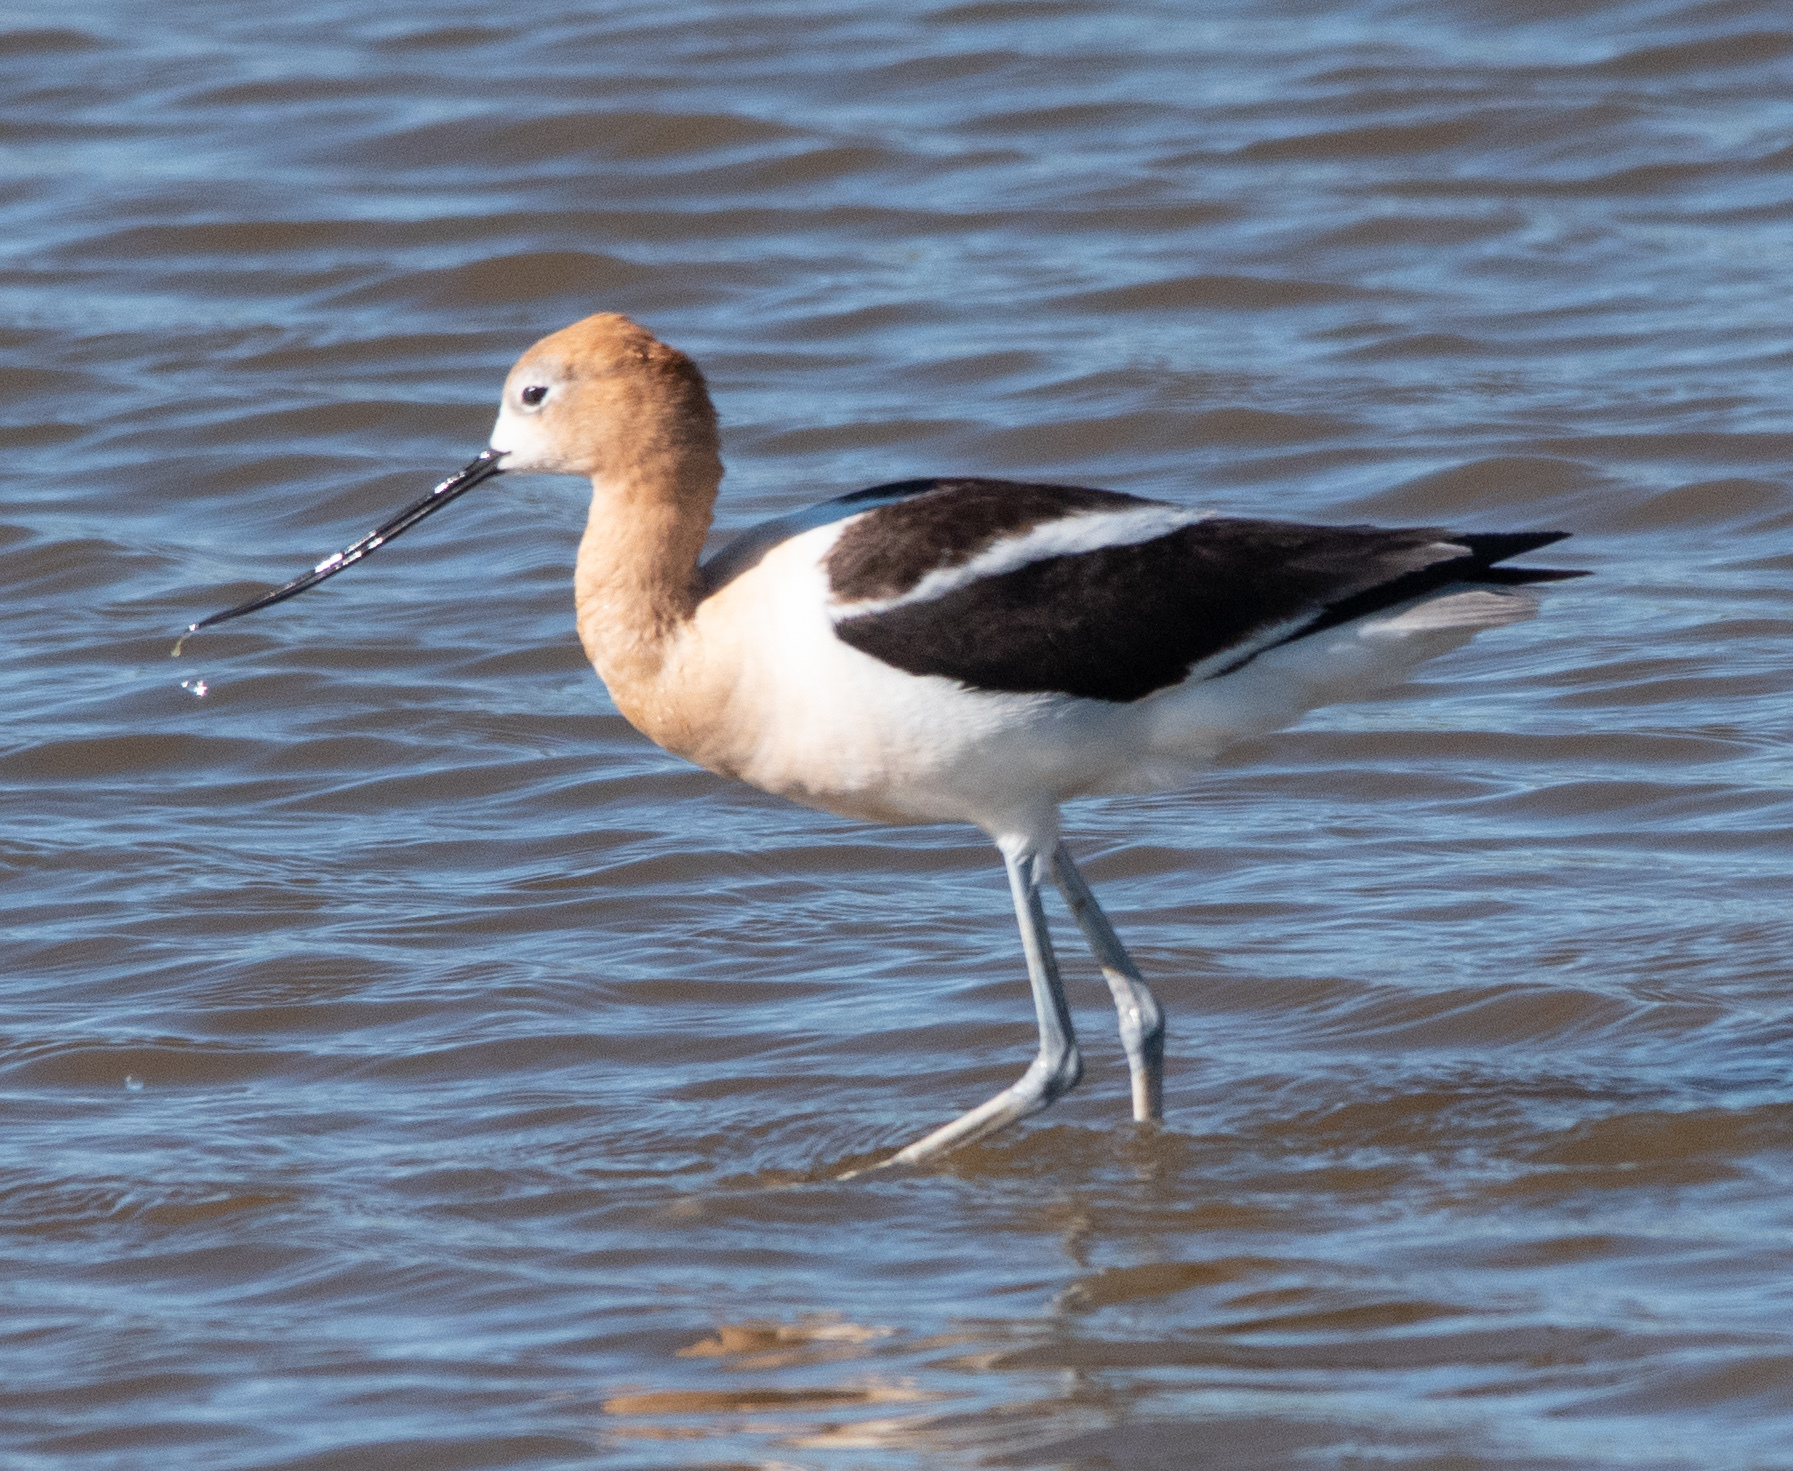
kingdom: Animalia
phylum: Chordata
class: Aves
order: Charadriiformes
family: Recurvirostridae
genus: Recurvirostra
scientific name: Recurvirostra americana
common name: American avocet
